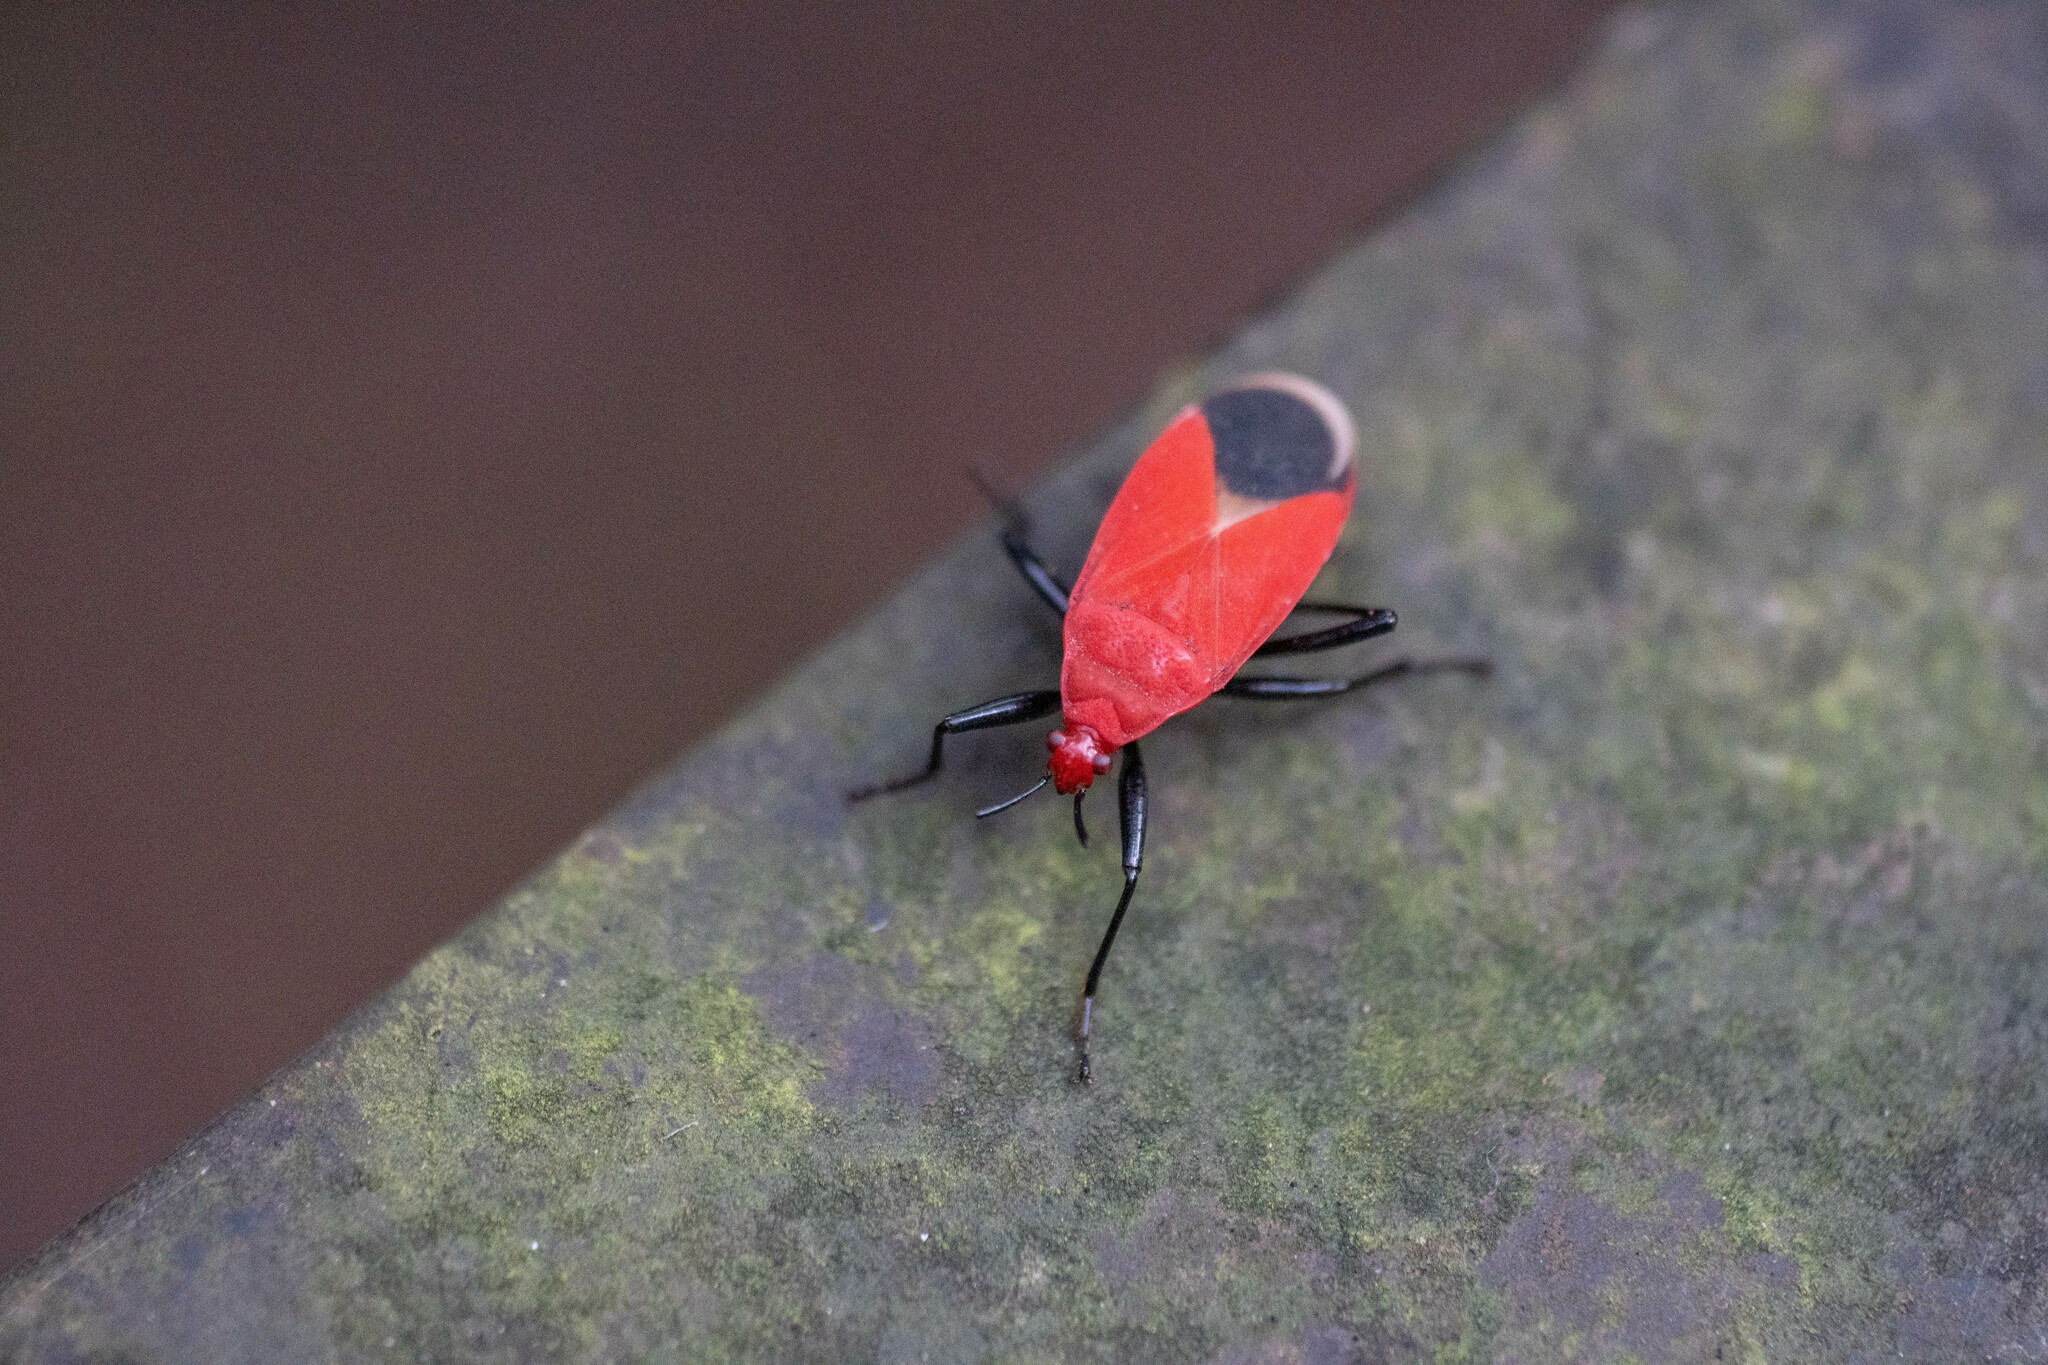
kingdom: Animalia
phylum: Arthropoda
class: Insecta
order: Hemiptera
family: Pyrrhocoridae
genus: Antilochus
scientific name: Antilochus
